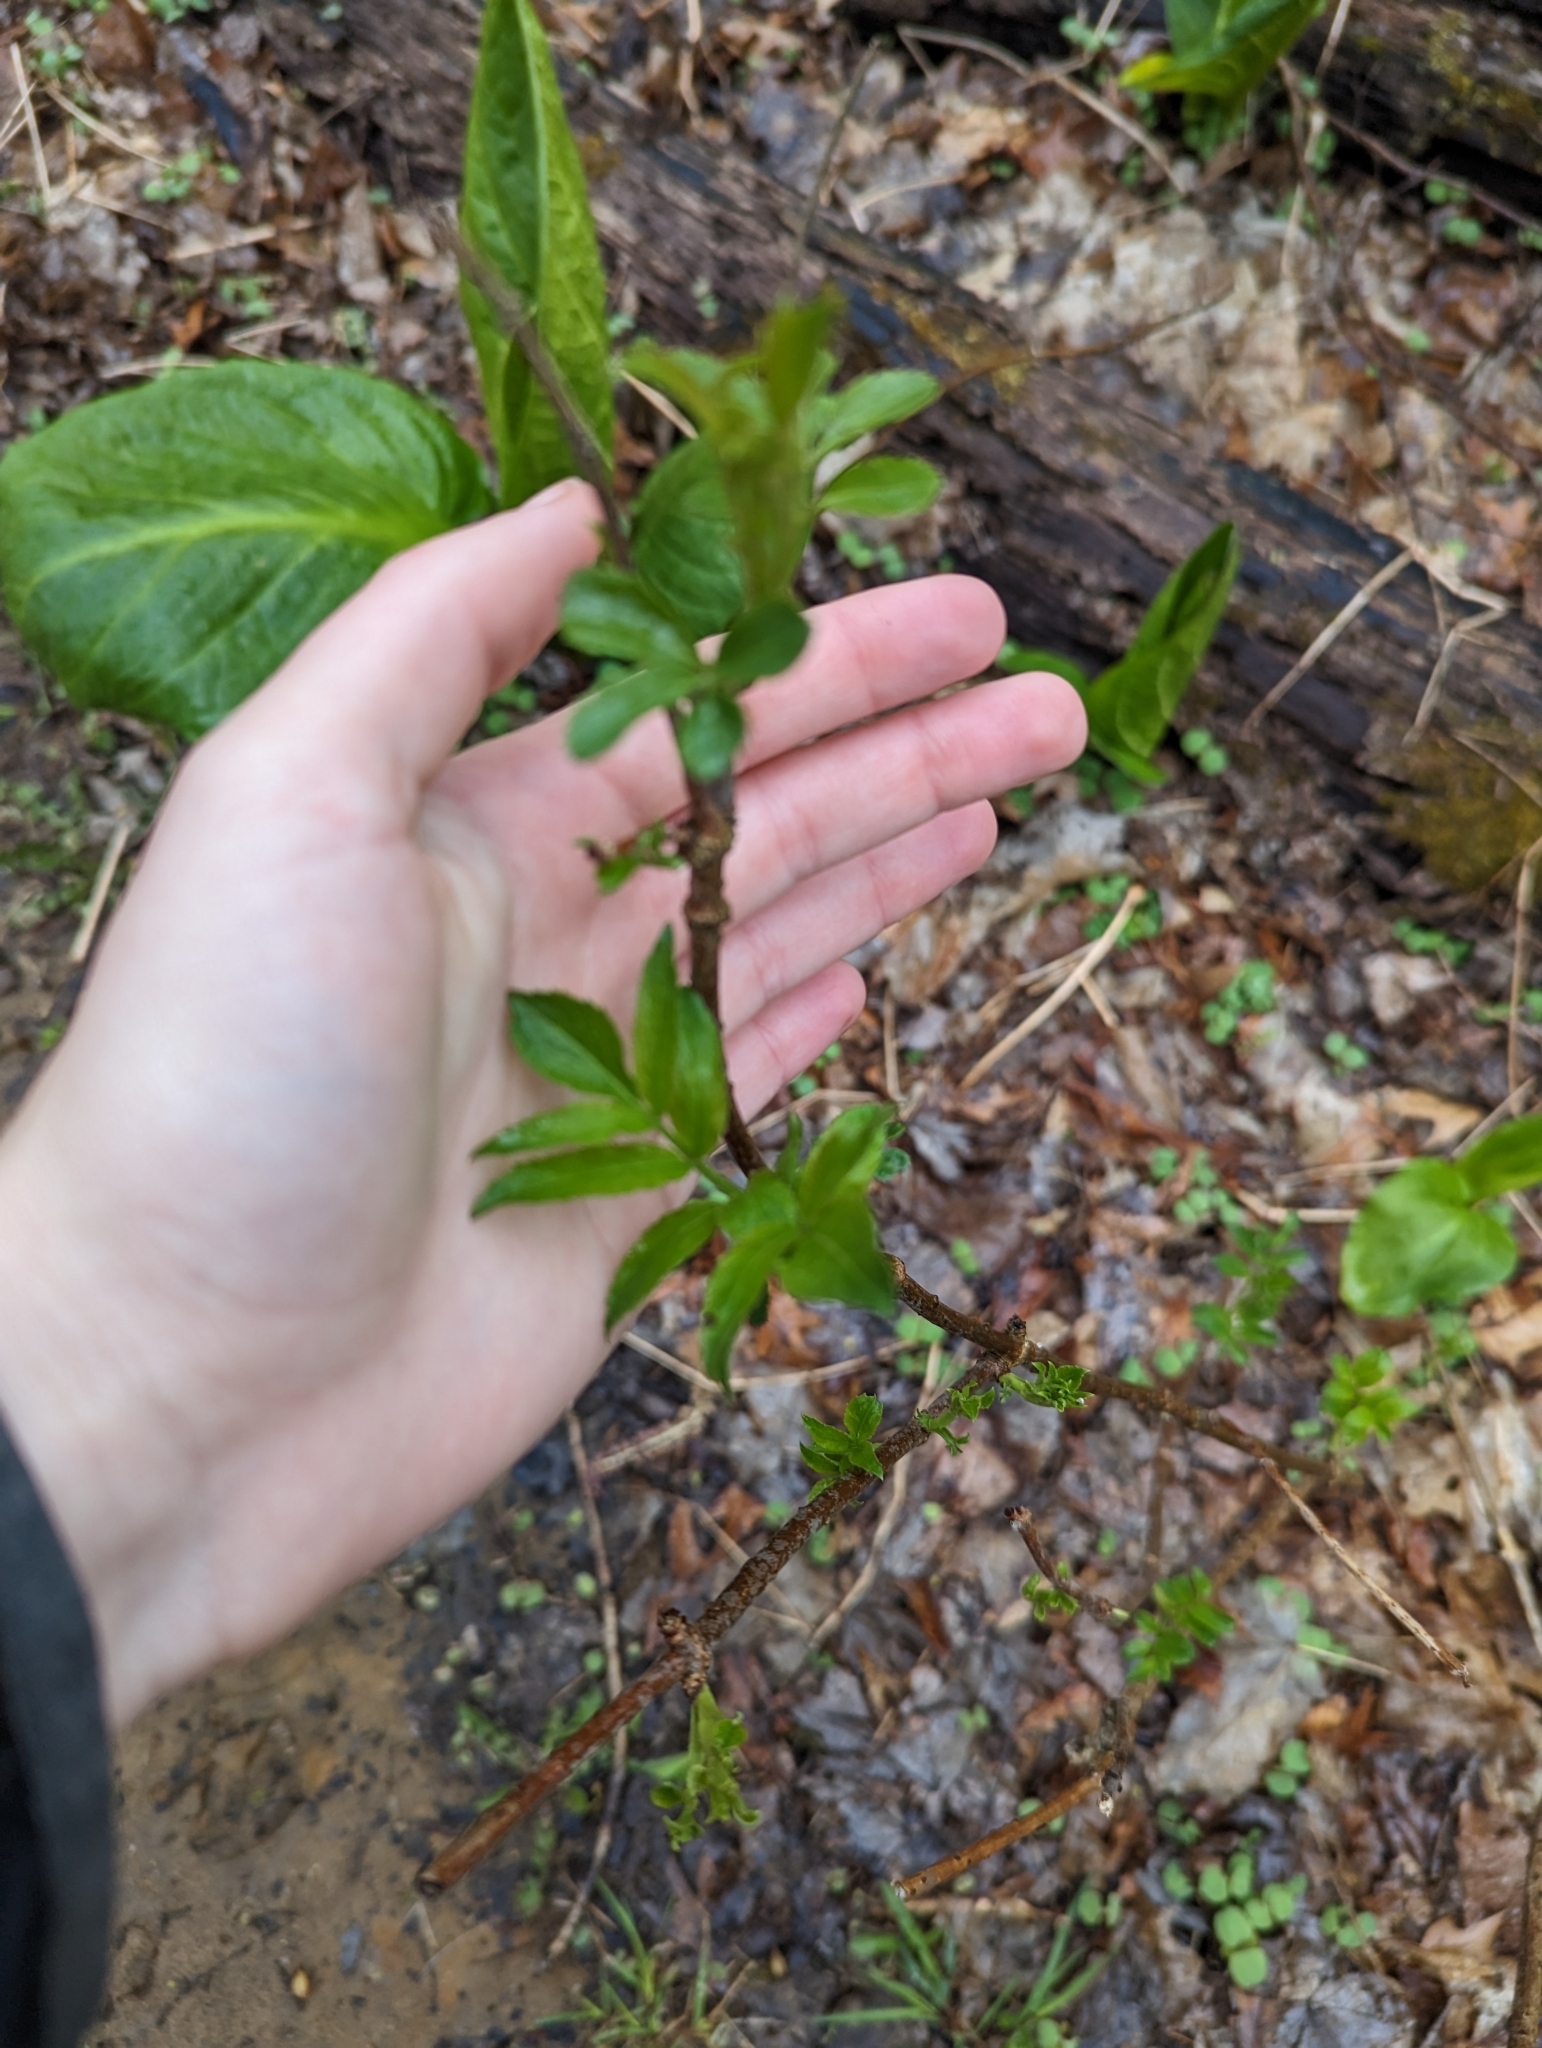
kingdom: Plantae
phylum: Tracheophyta
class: Magnoliopsida
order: Dipsacales
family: Viburnaceae
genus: Sambucus
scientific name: Sambucus canadensis
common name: American elder
